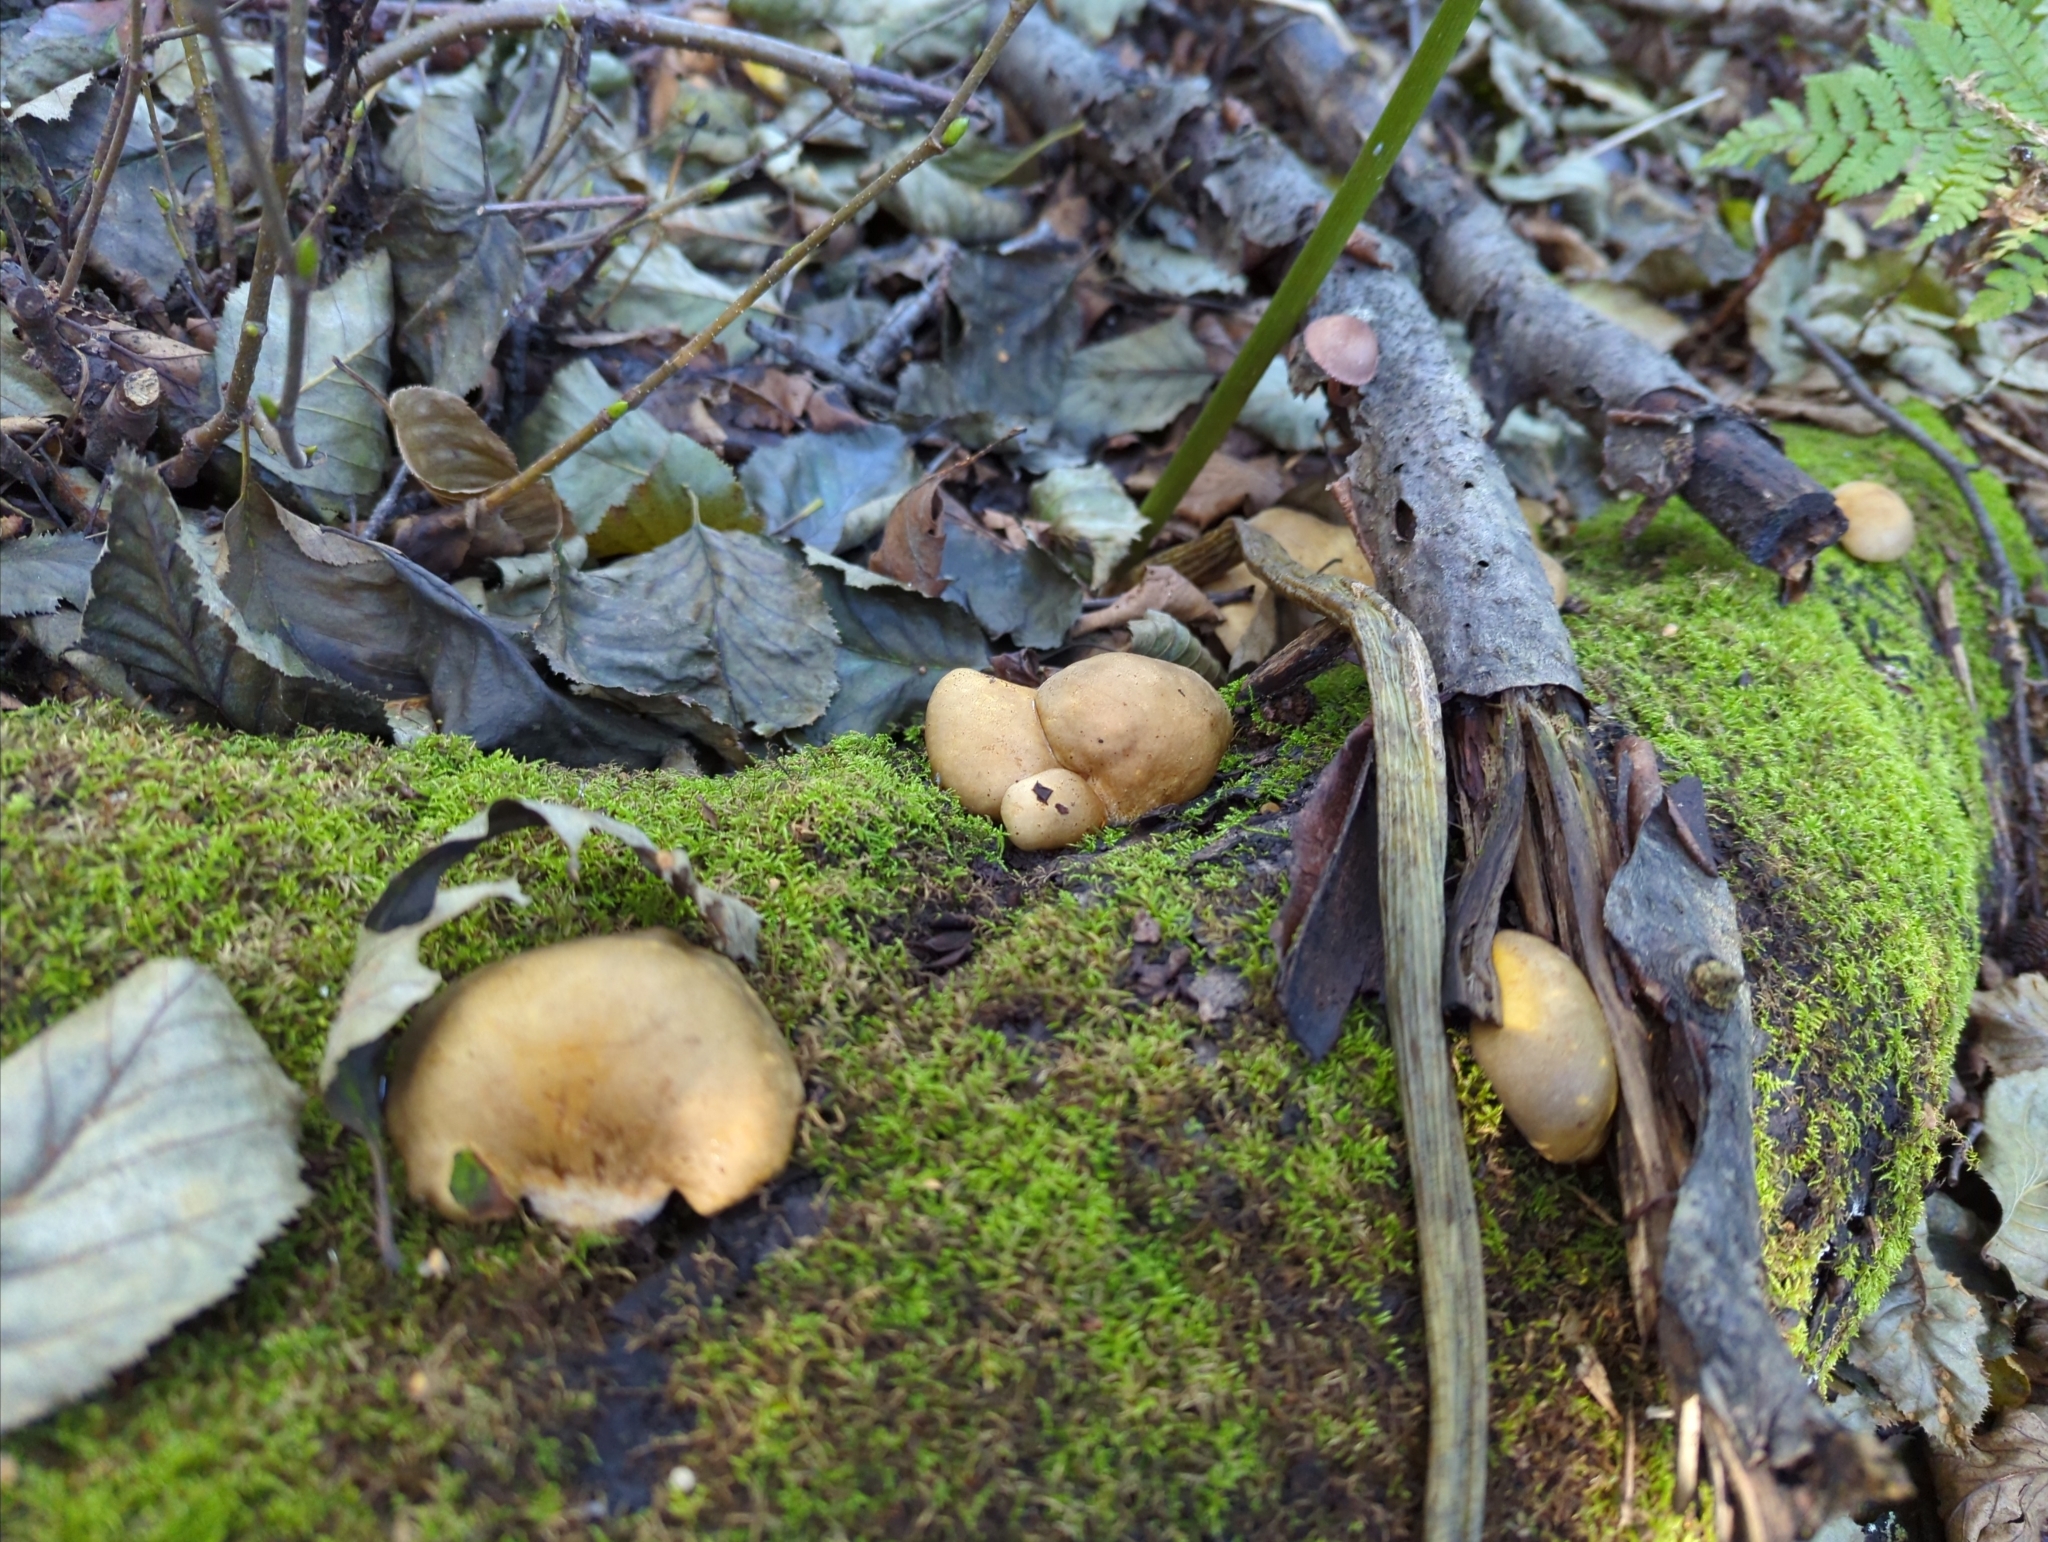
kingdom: Fungi
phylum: Basidiomycota
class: Agaricomycetes
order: Agaricales
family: Sarcomyxaceae
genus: Sarcomyxa
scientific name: Sarcomyxa serotina
